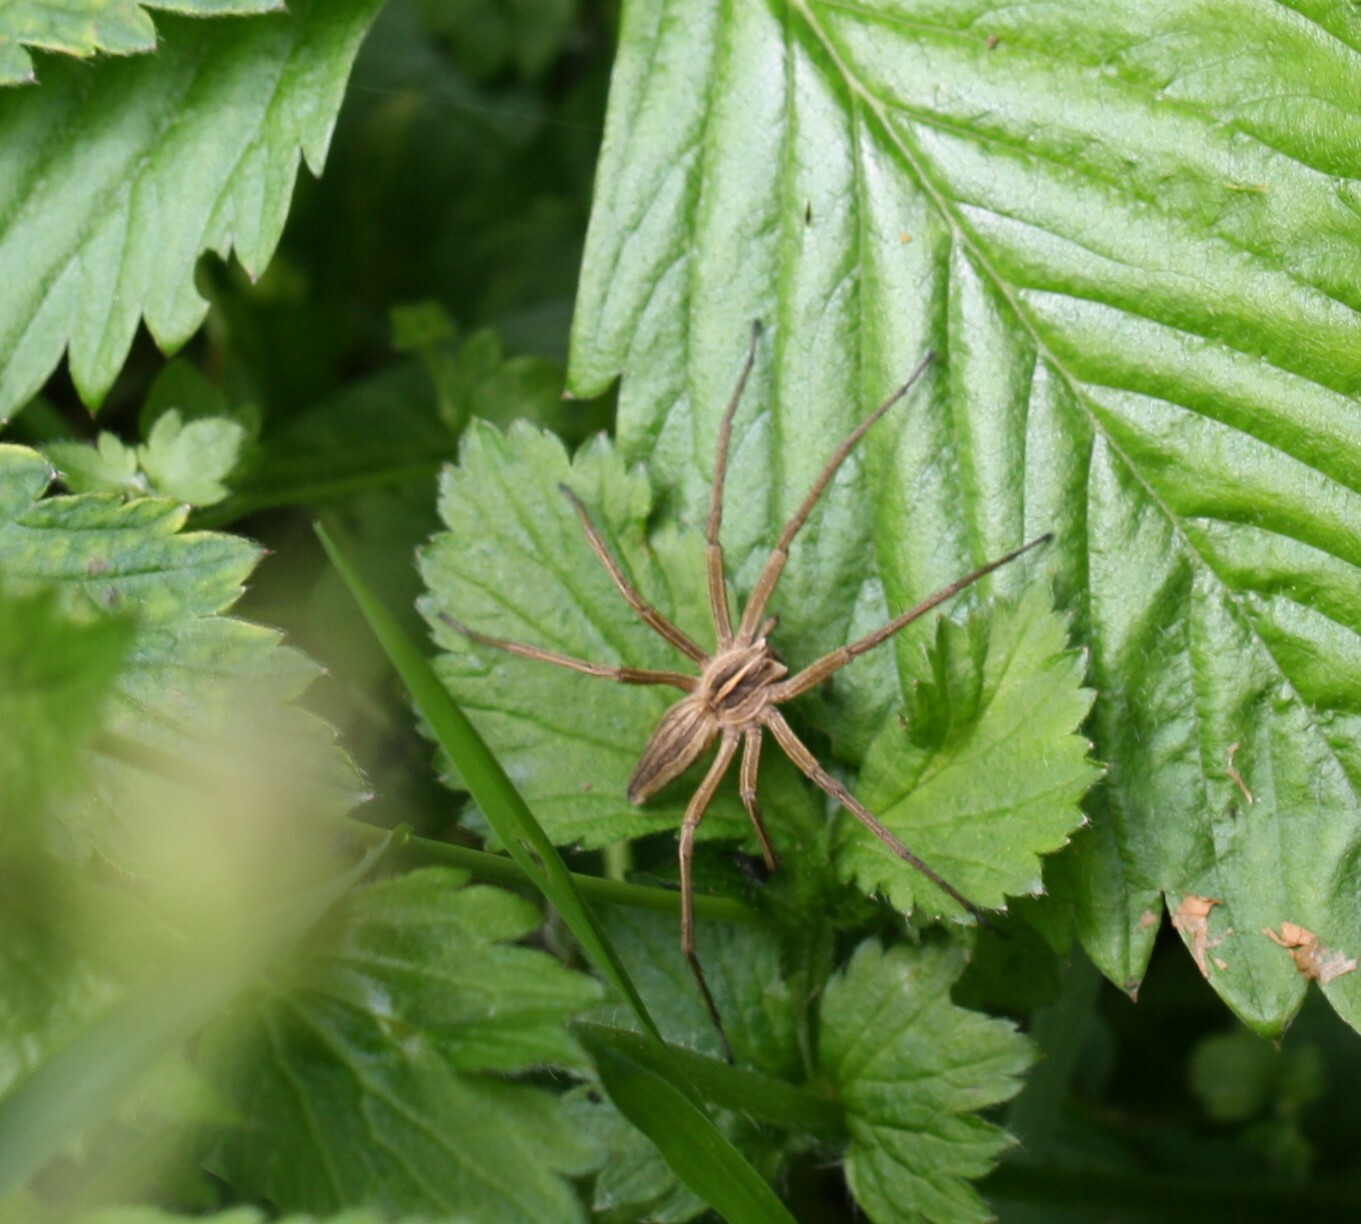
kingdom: Animalia
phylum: Arthropoda
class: Arachnida
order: Araneae
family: Pisauridae
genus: Pisaura
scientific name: Pisaura mirabilis
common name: Tent spider
